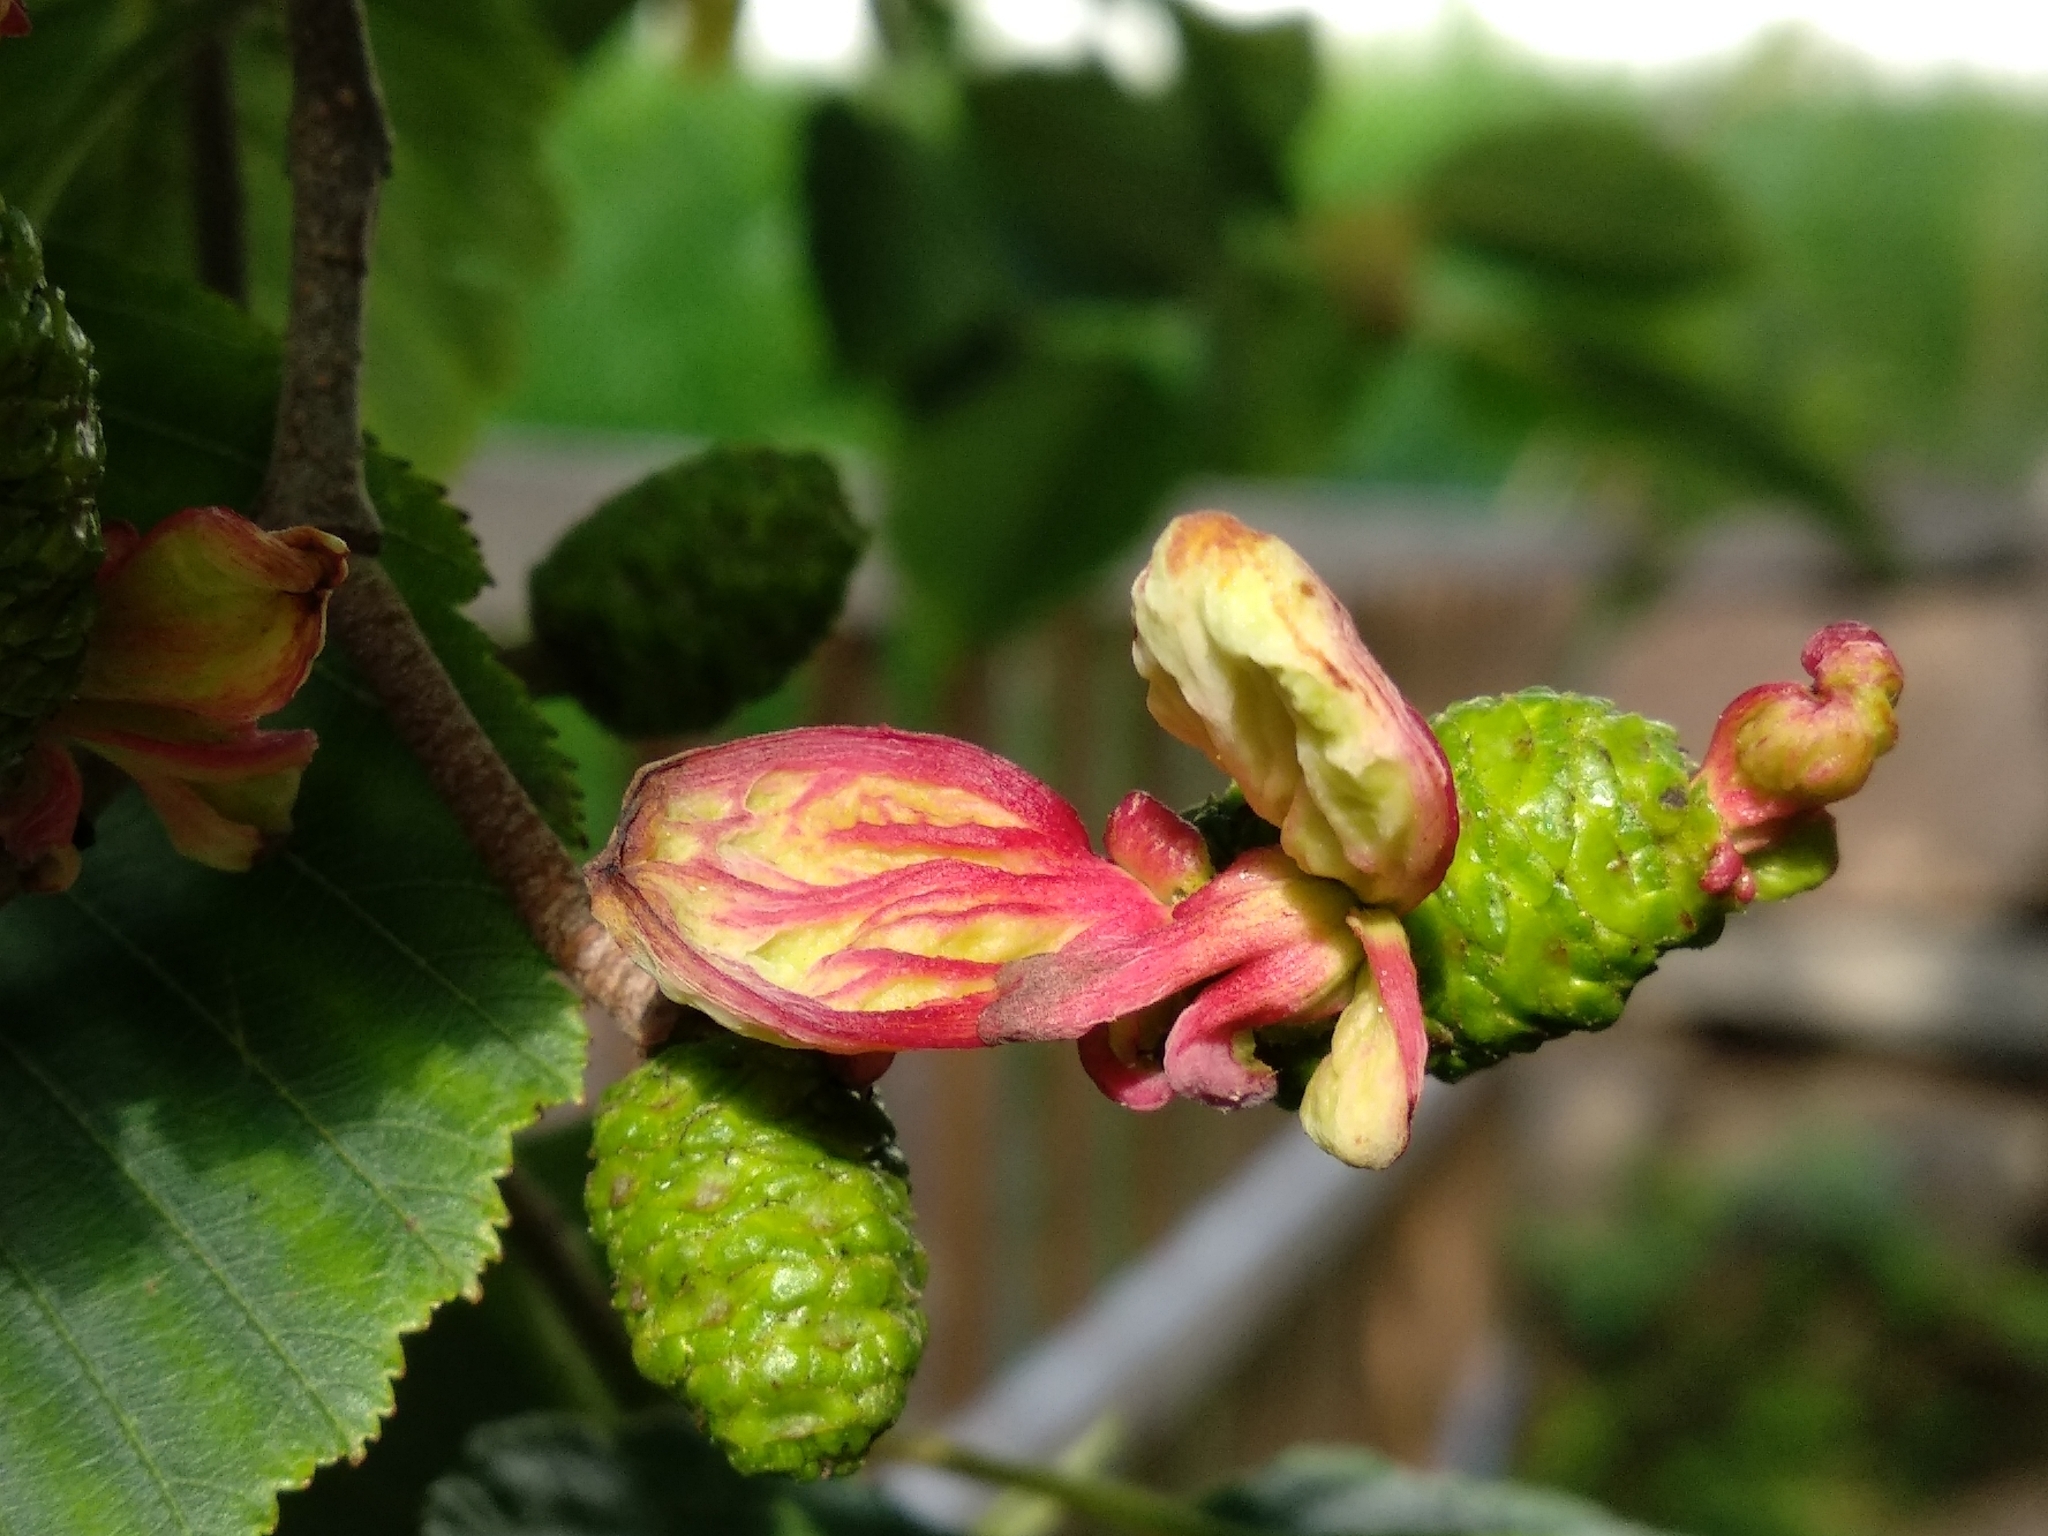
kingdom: Fungi
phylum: Ascomycota
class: Taphrinomycetes
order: Taphrinales
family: Taphrinaceae
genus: Taphrina
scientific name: Taphrina alni
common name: Alder tongue
